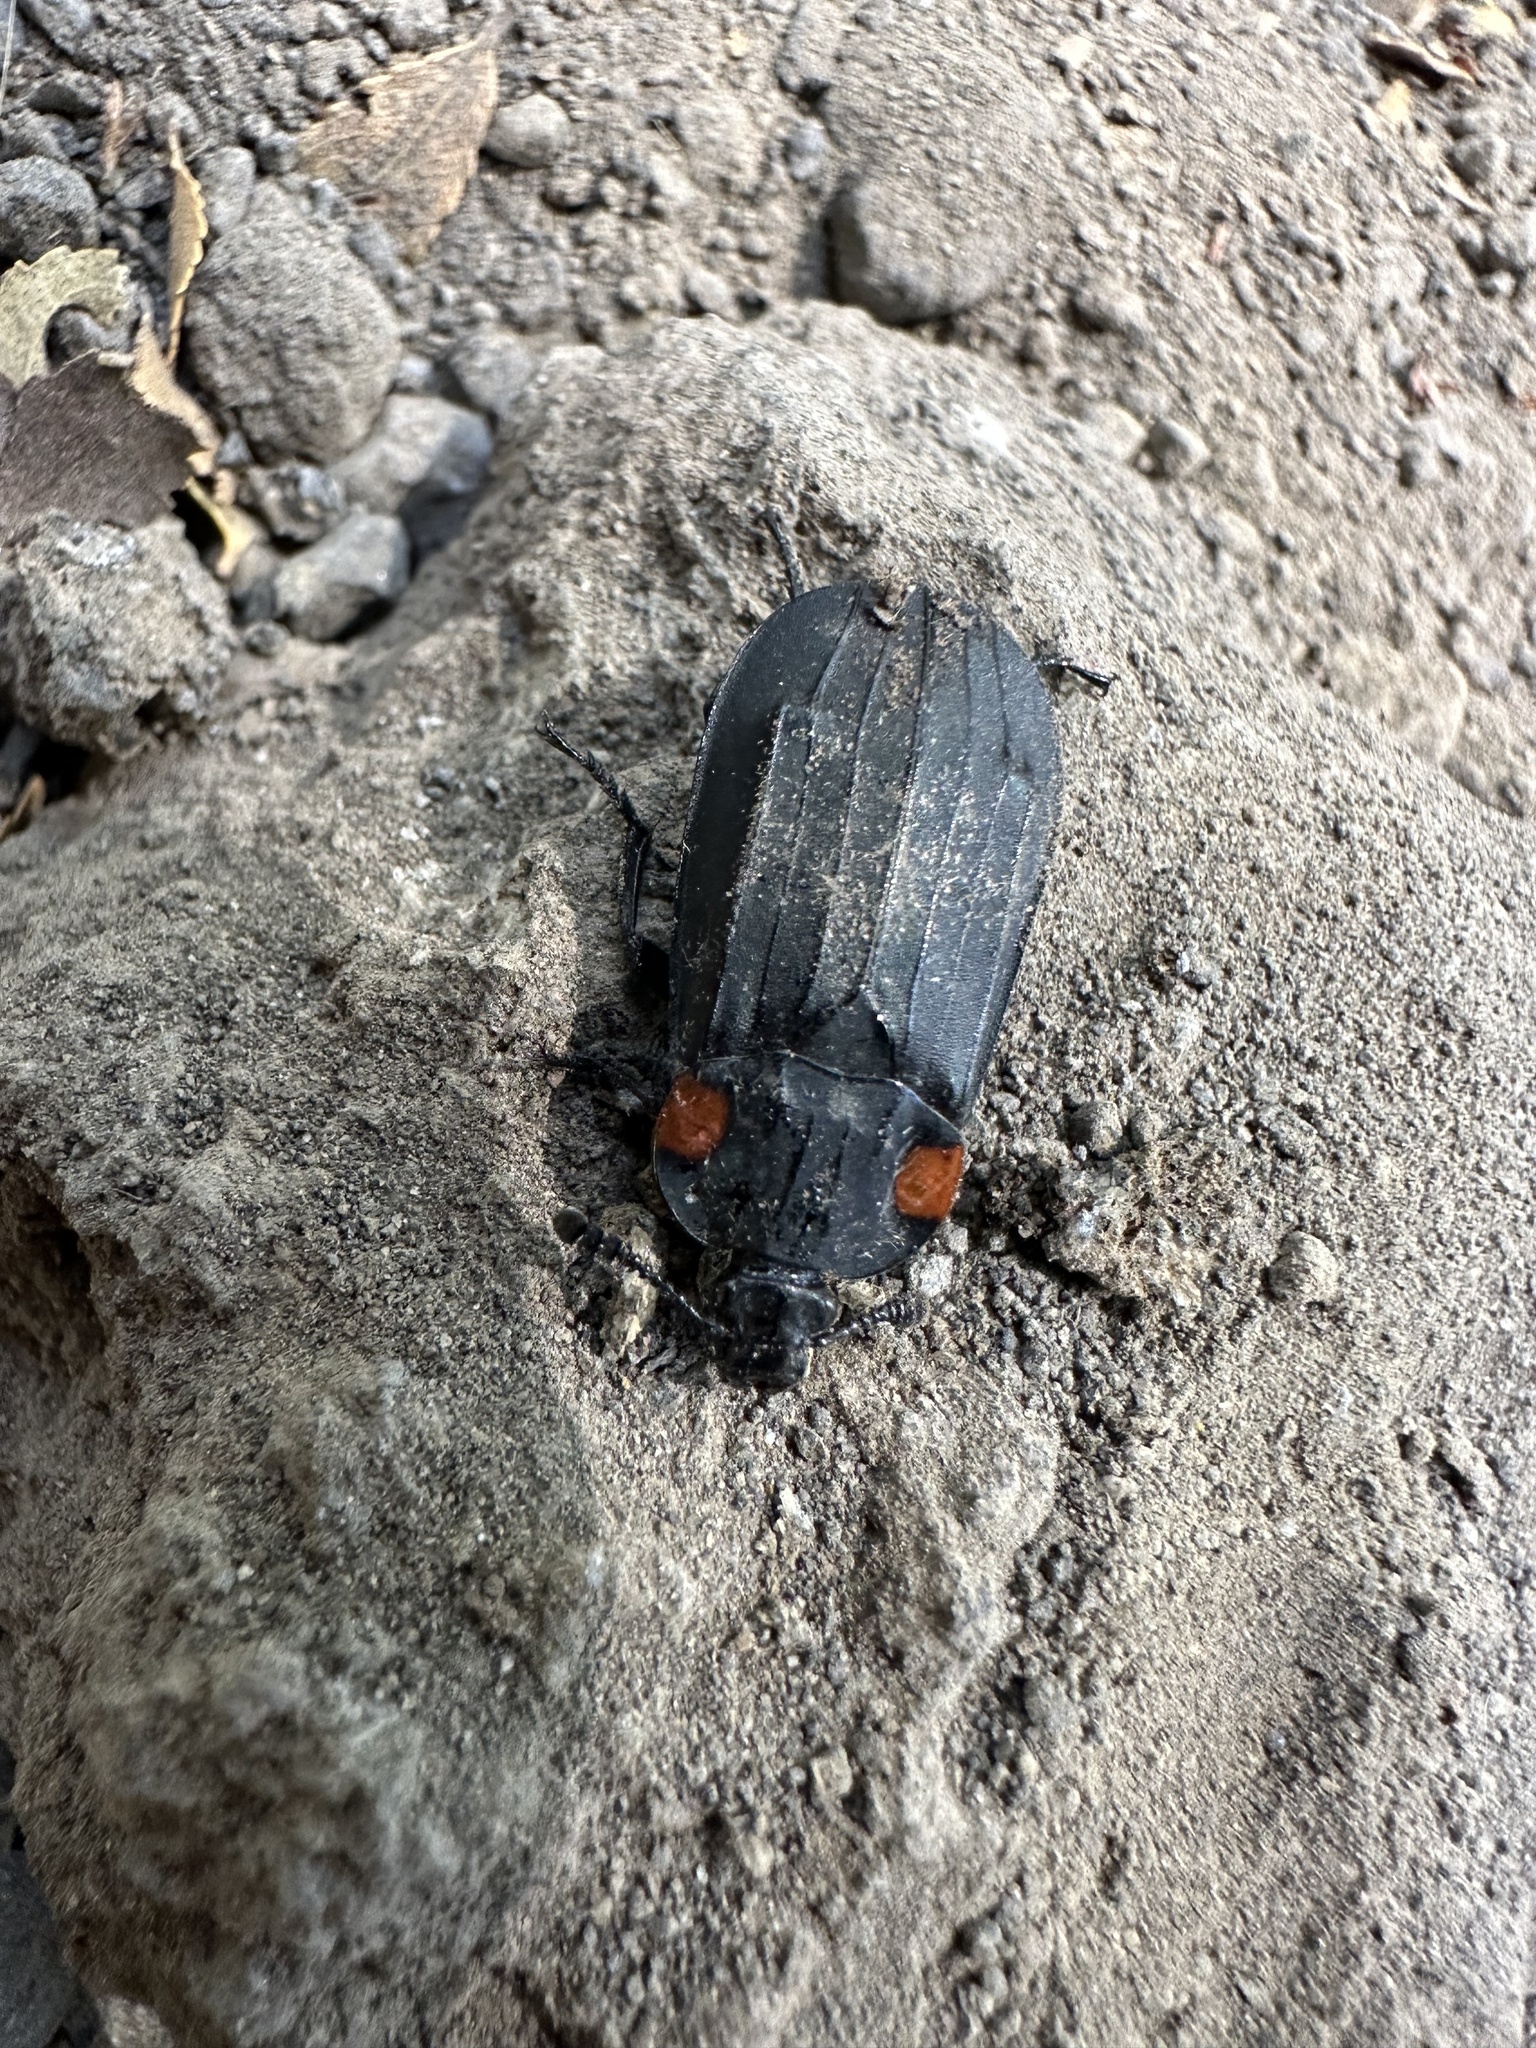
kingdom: Animalia
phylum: Arthropoda
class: Insecta
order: Coleoptera
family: Staphylinidae
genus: Oxelytrum
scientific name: Oxelytrum biguttatum
